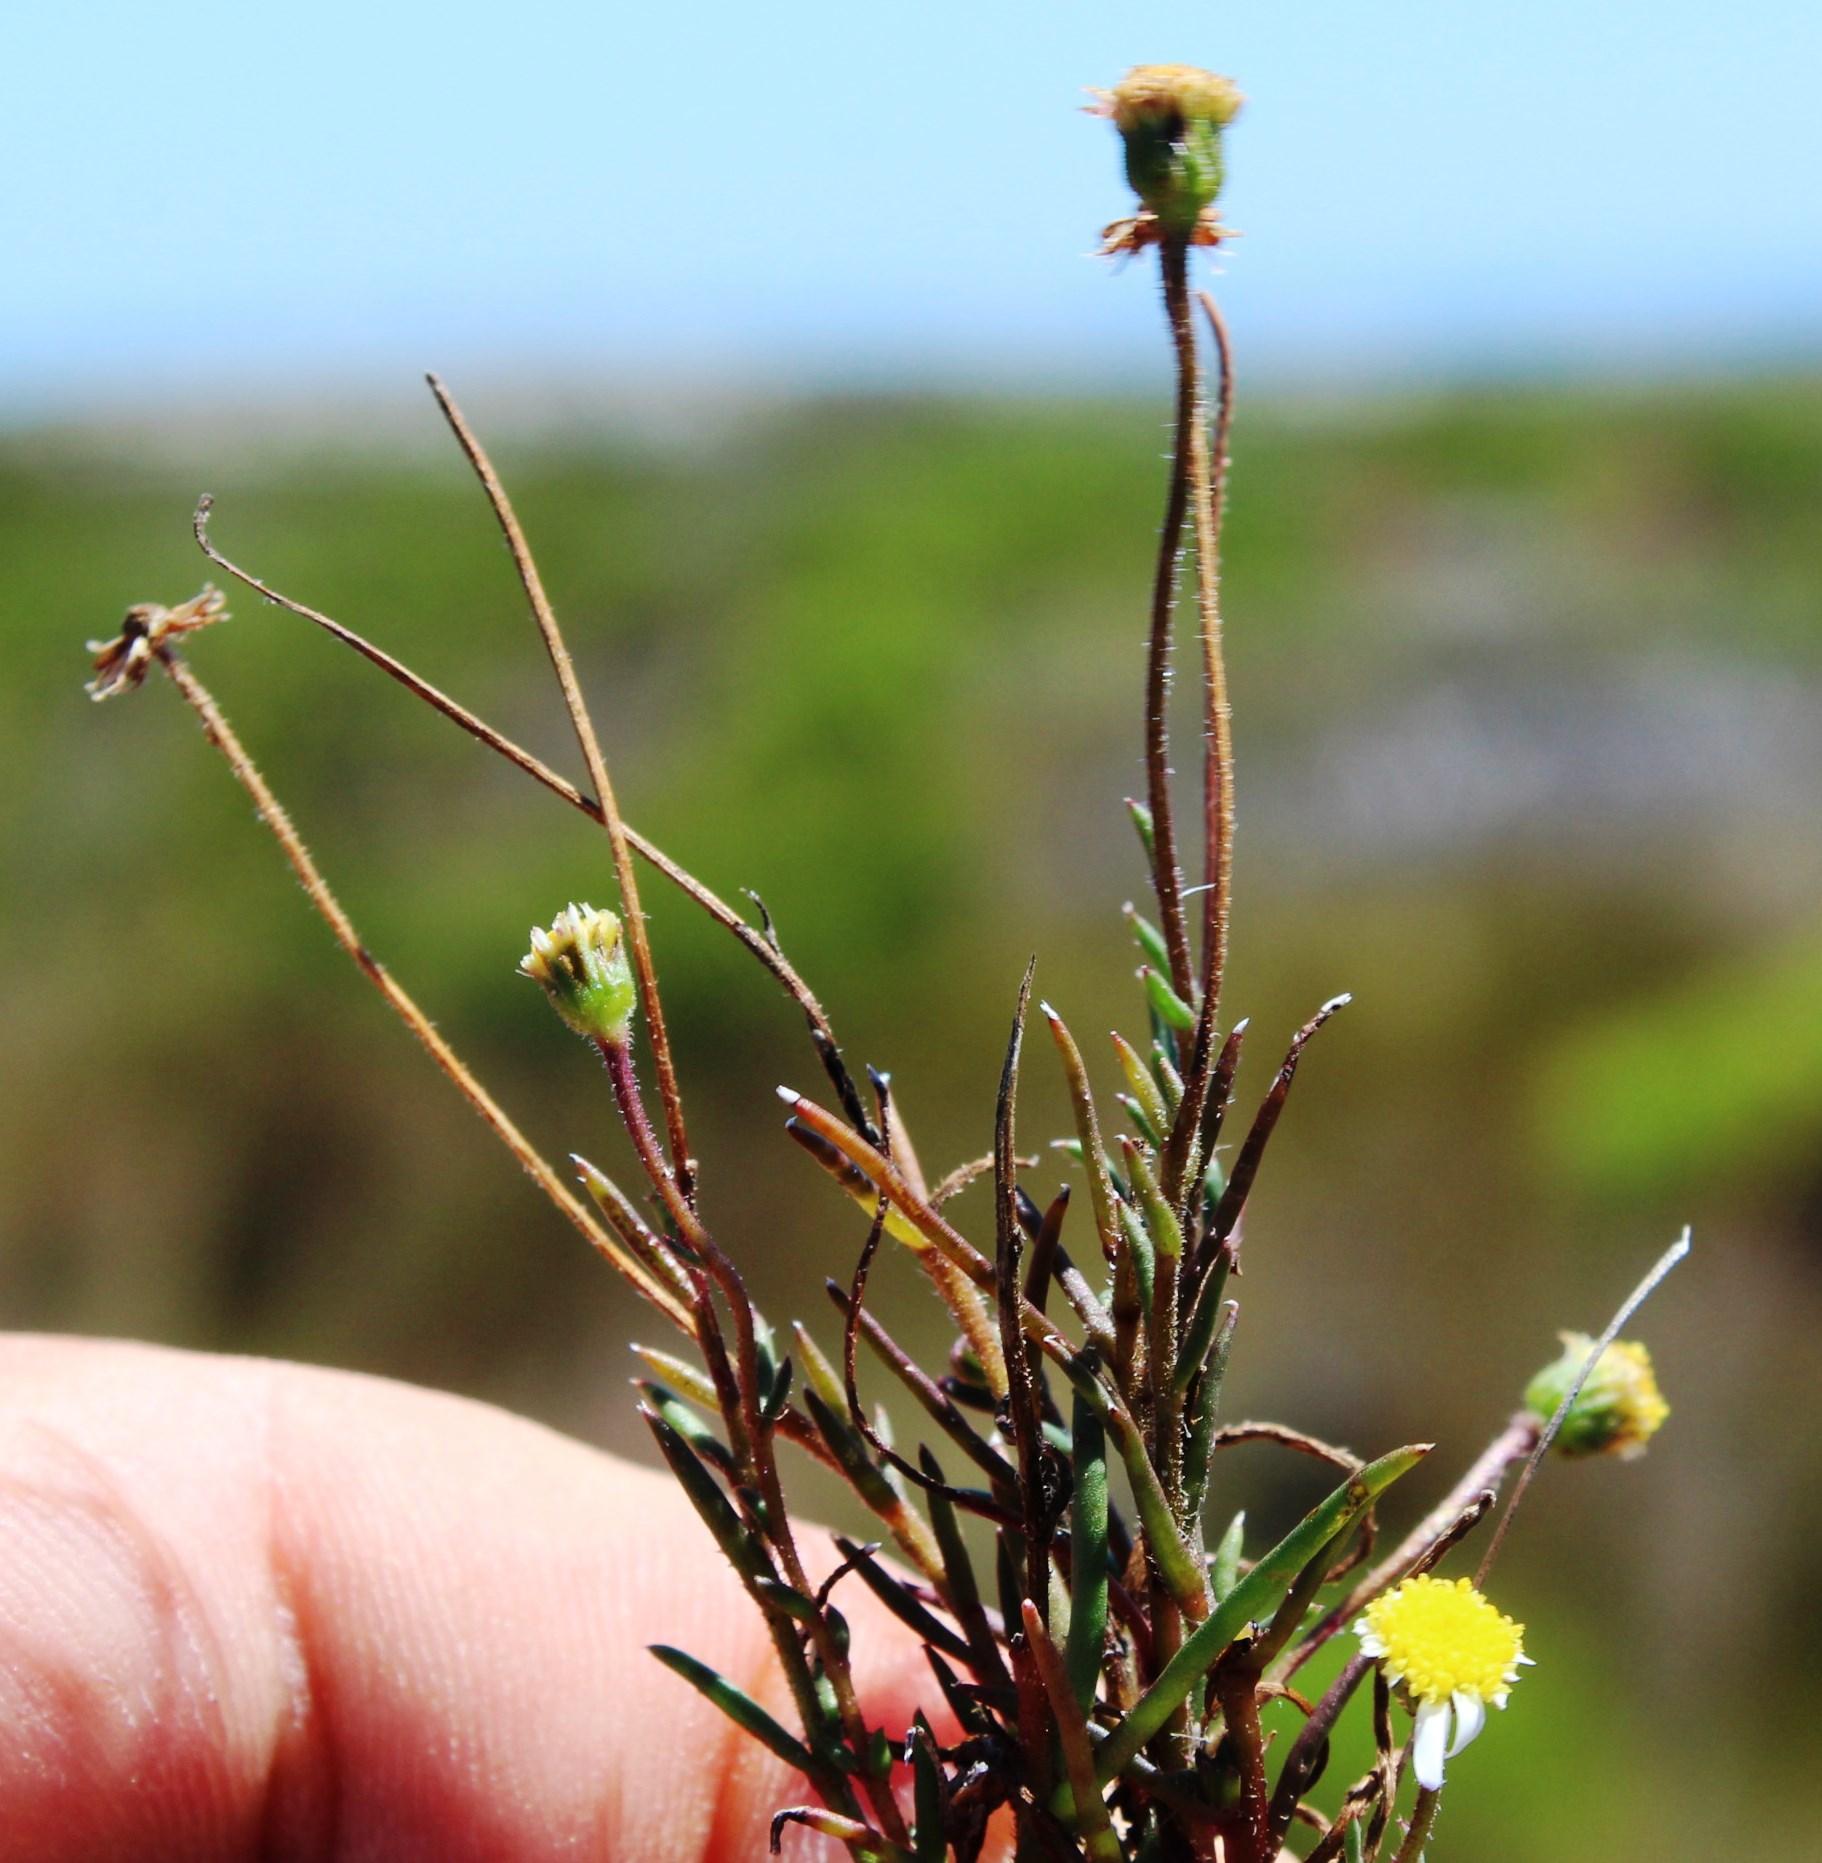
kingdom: Plantae
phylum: Tracheophyta
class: Magnoliopsida
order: Asterales
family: Asteraceae
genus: Felicia
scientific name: Felicia tenella
